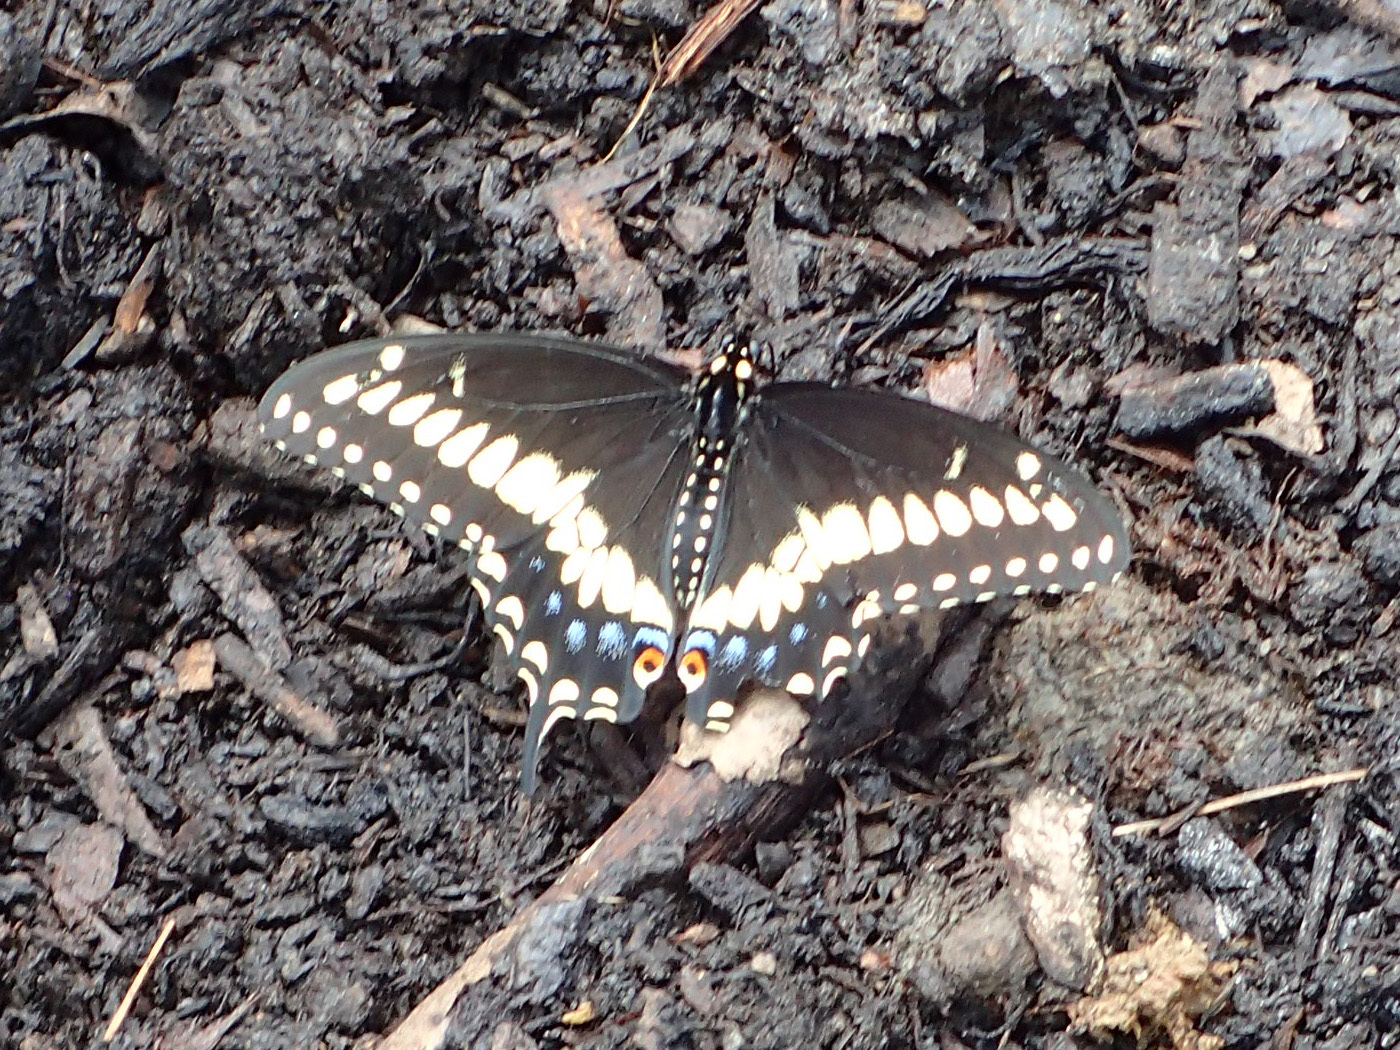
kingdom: Animalia
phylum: Arthropoda
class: Insecta
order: Lepidoptera
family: Papilionidae
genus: Papilio
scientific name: Papilio polyxenes
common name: Black swallowtail
